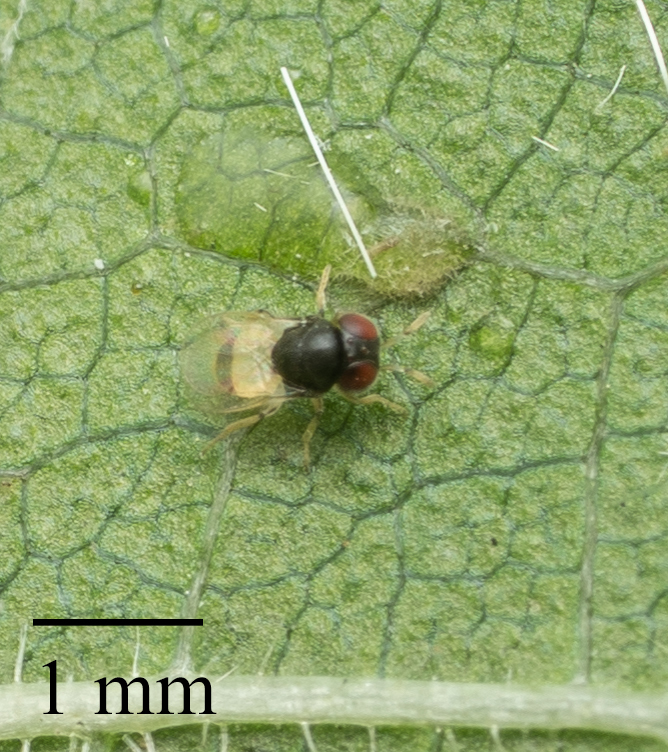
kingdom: Animalia
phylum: Arthropoda
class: Insecta
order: Hymenoptera
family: Pteromalidae
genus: Idioporus
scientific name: Idioporus affinis
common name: Pteromalid wasp
